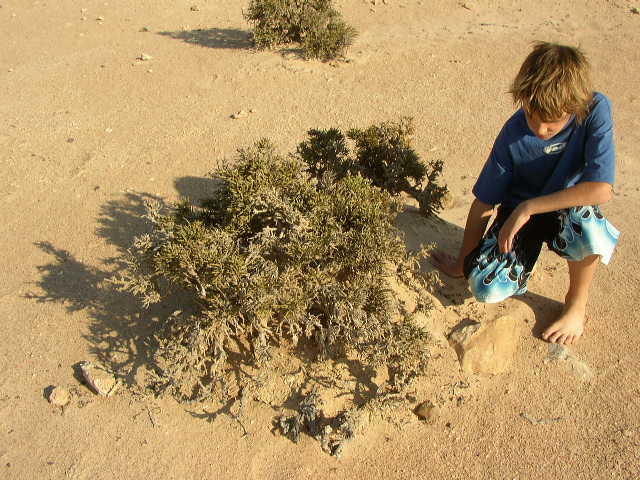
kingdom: Plantae
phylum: Tracheophyta
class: Magnoliopsida
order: Caryophyllales
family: Amaranthaceae
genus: Arthraerva
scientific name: Arthraerva leubnitziae
